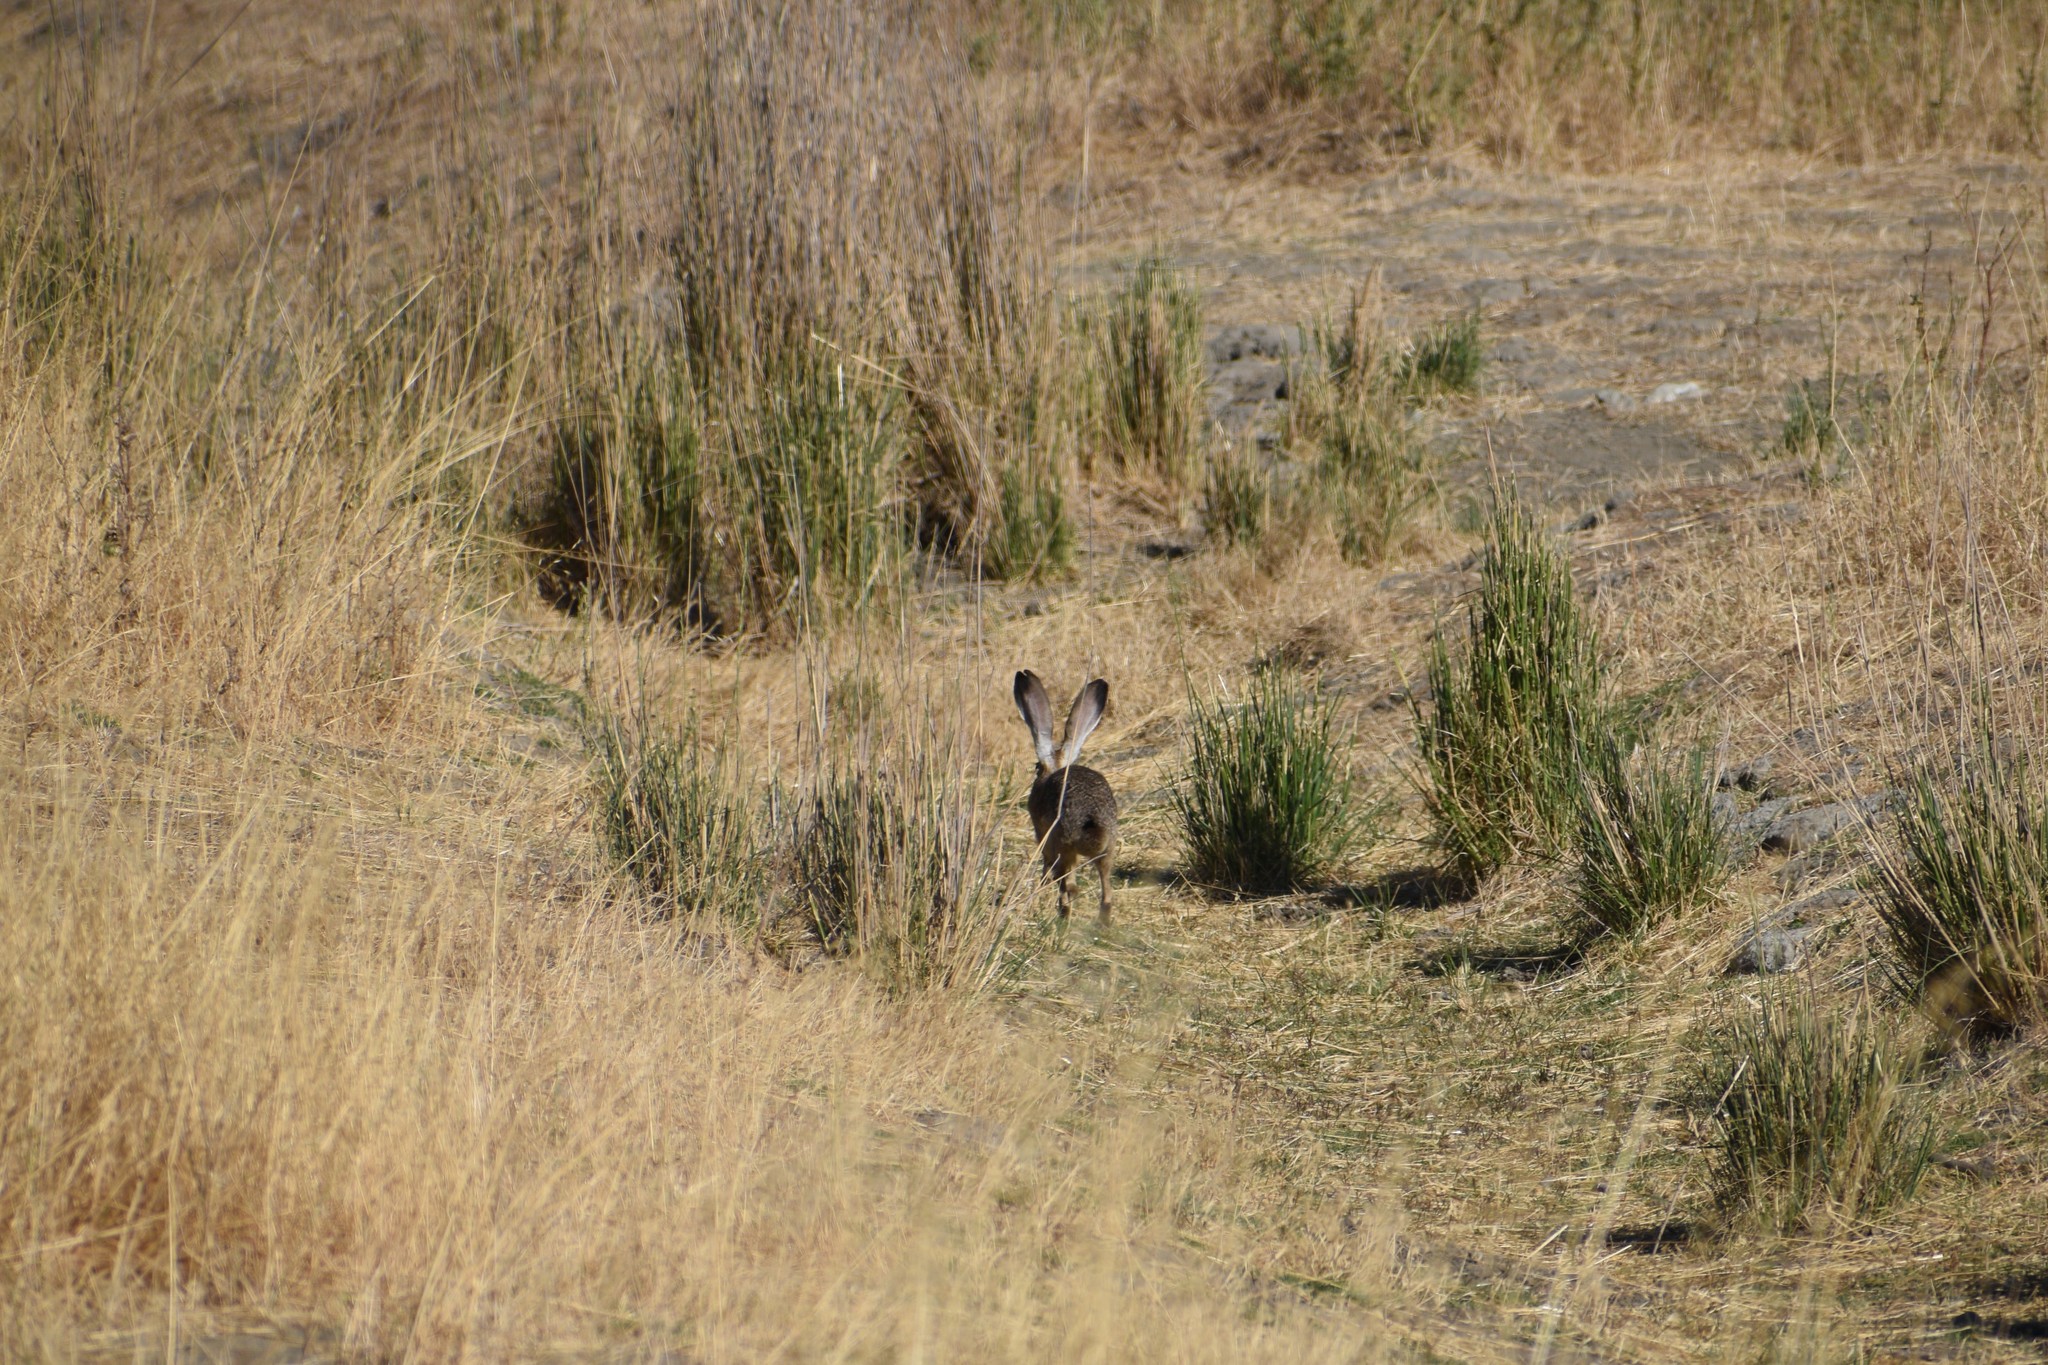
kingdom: Animalia
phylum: Chordata
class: Mammalia
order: Lagomorpha
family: Leporidae
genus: Lepus
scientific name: Lepus californicus
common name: Black-tailed jackrabbit
